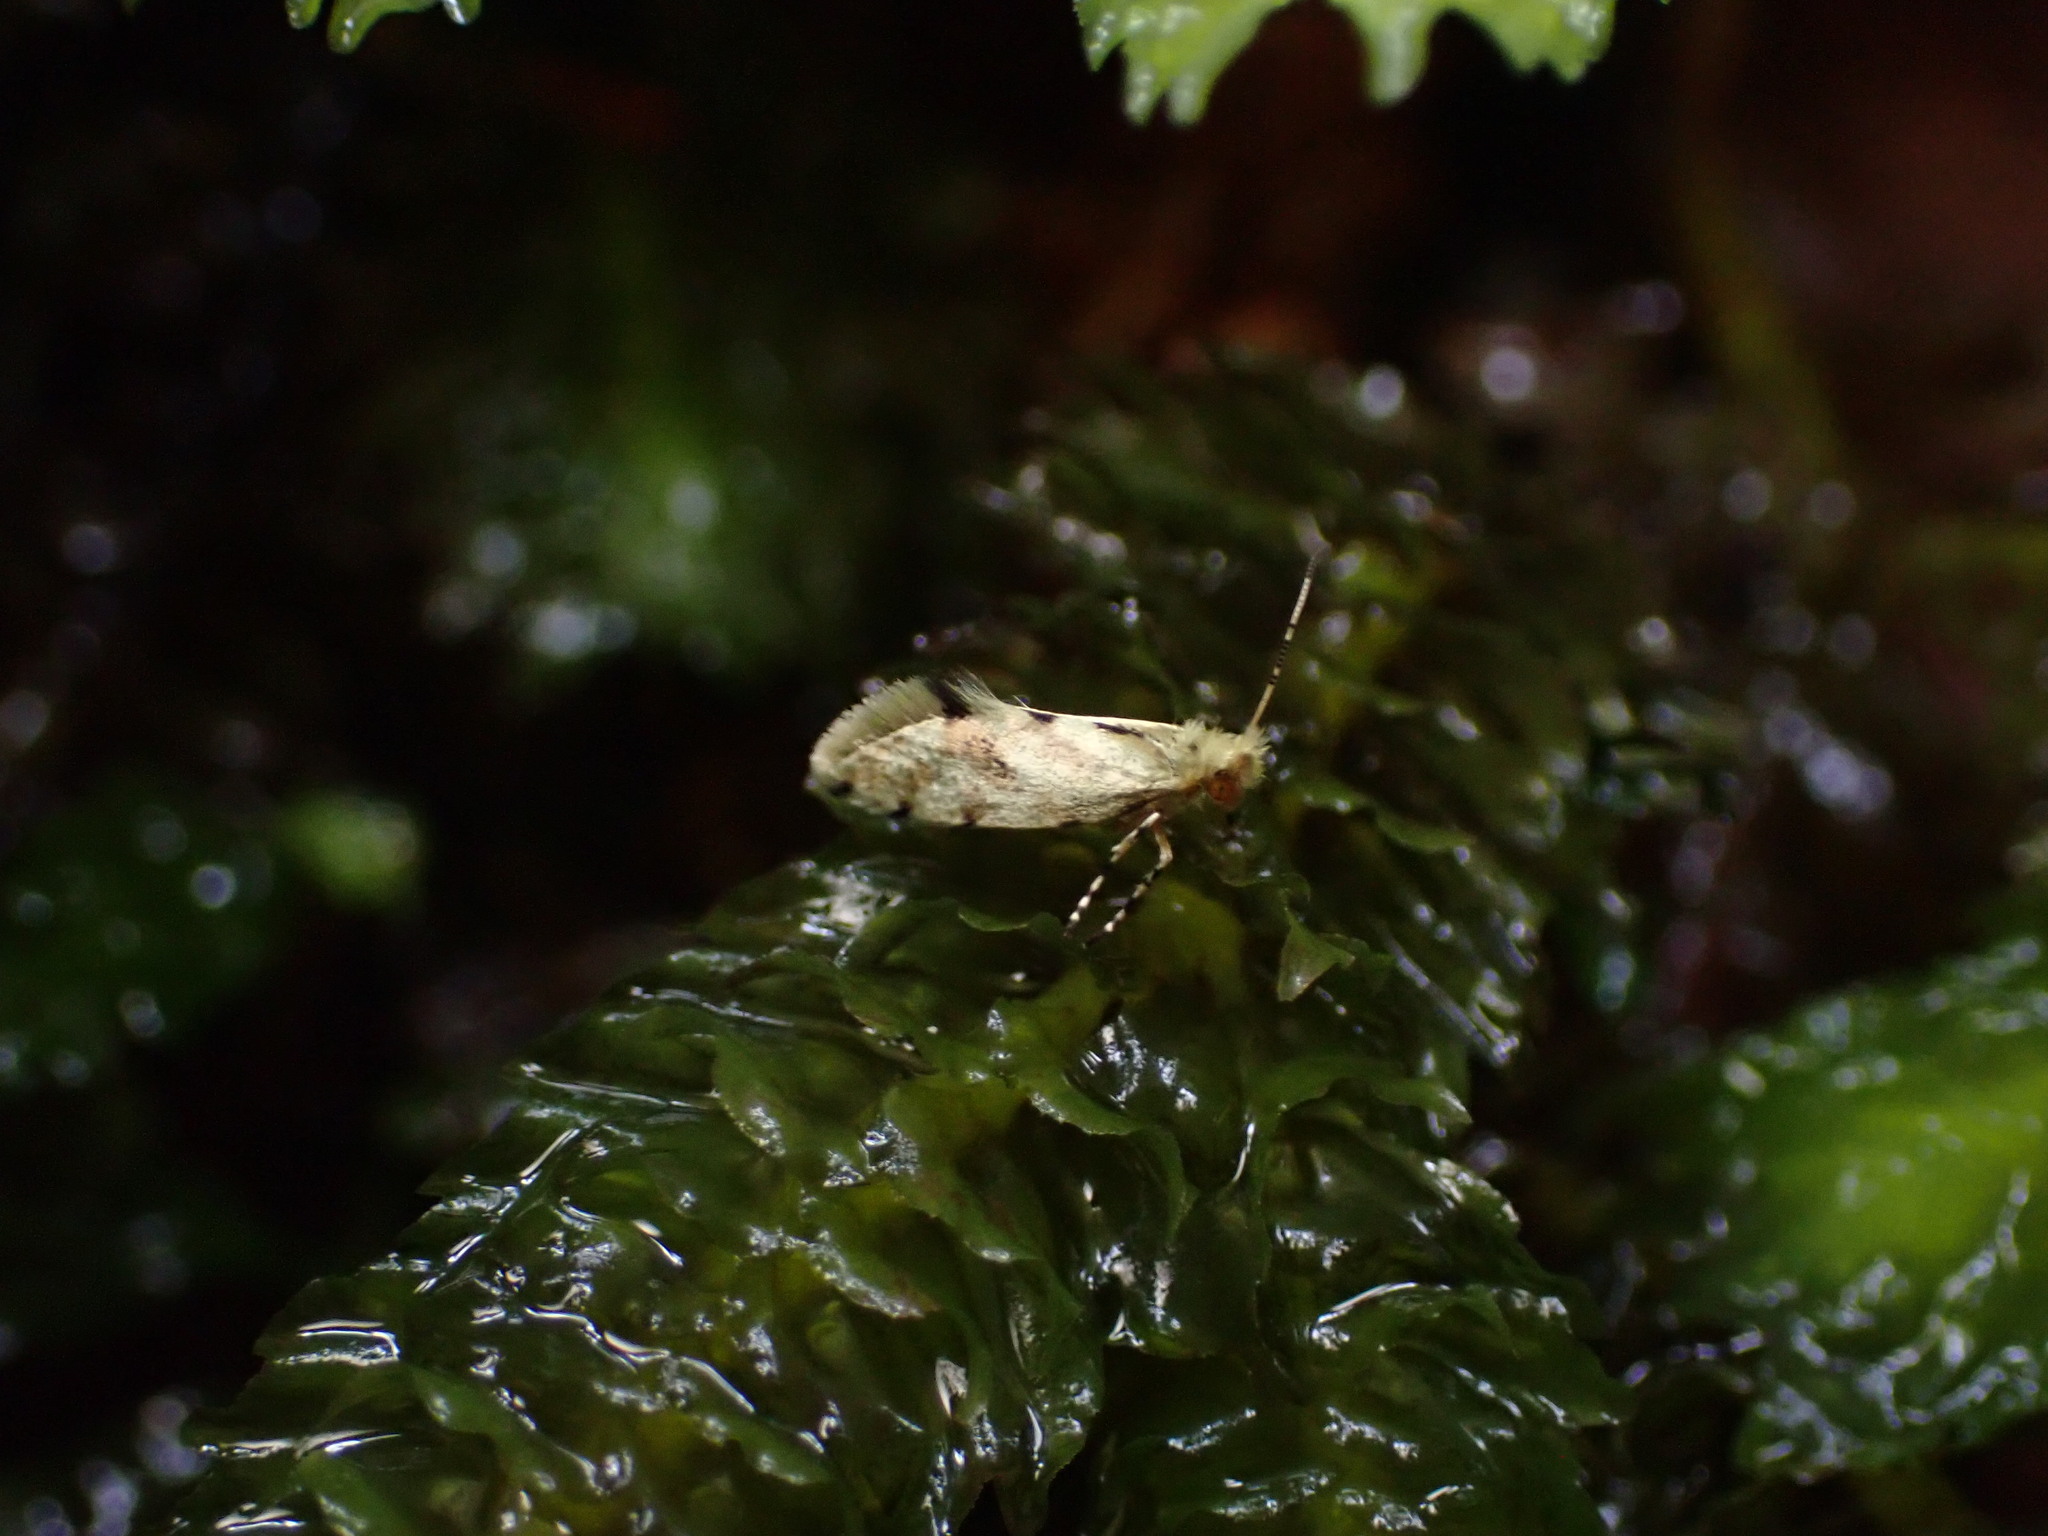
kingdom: Animalia
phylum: Arthropoda
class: Insecta
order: Lepidoptera
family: Micropterigidae
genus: Sabatinca
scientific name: Sabatinca chalcophanes
